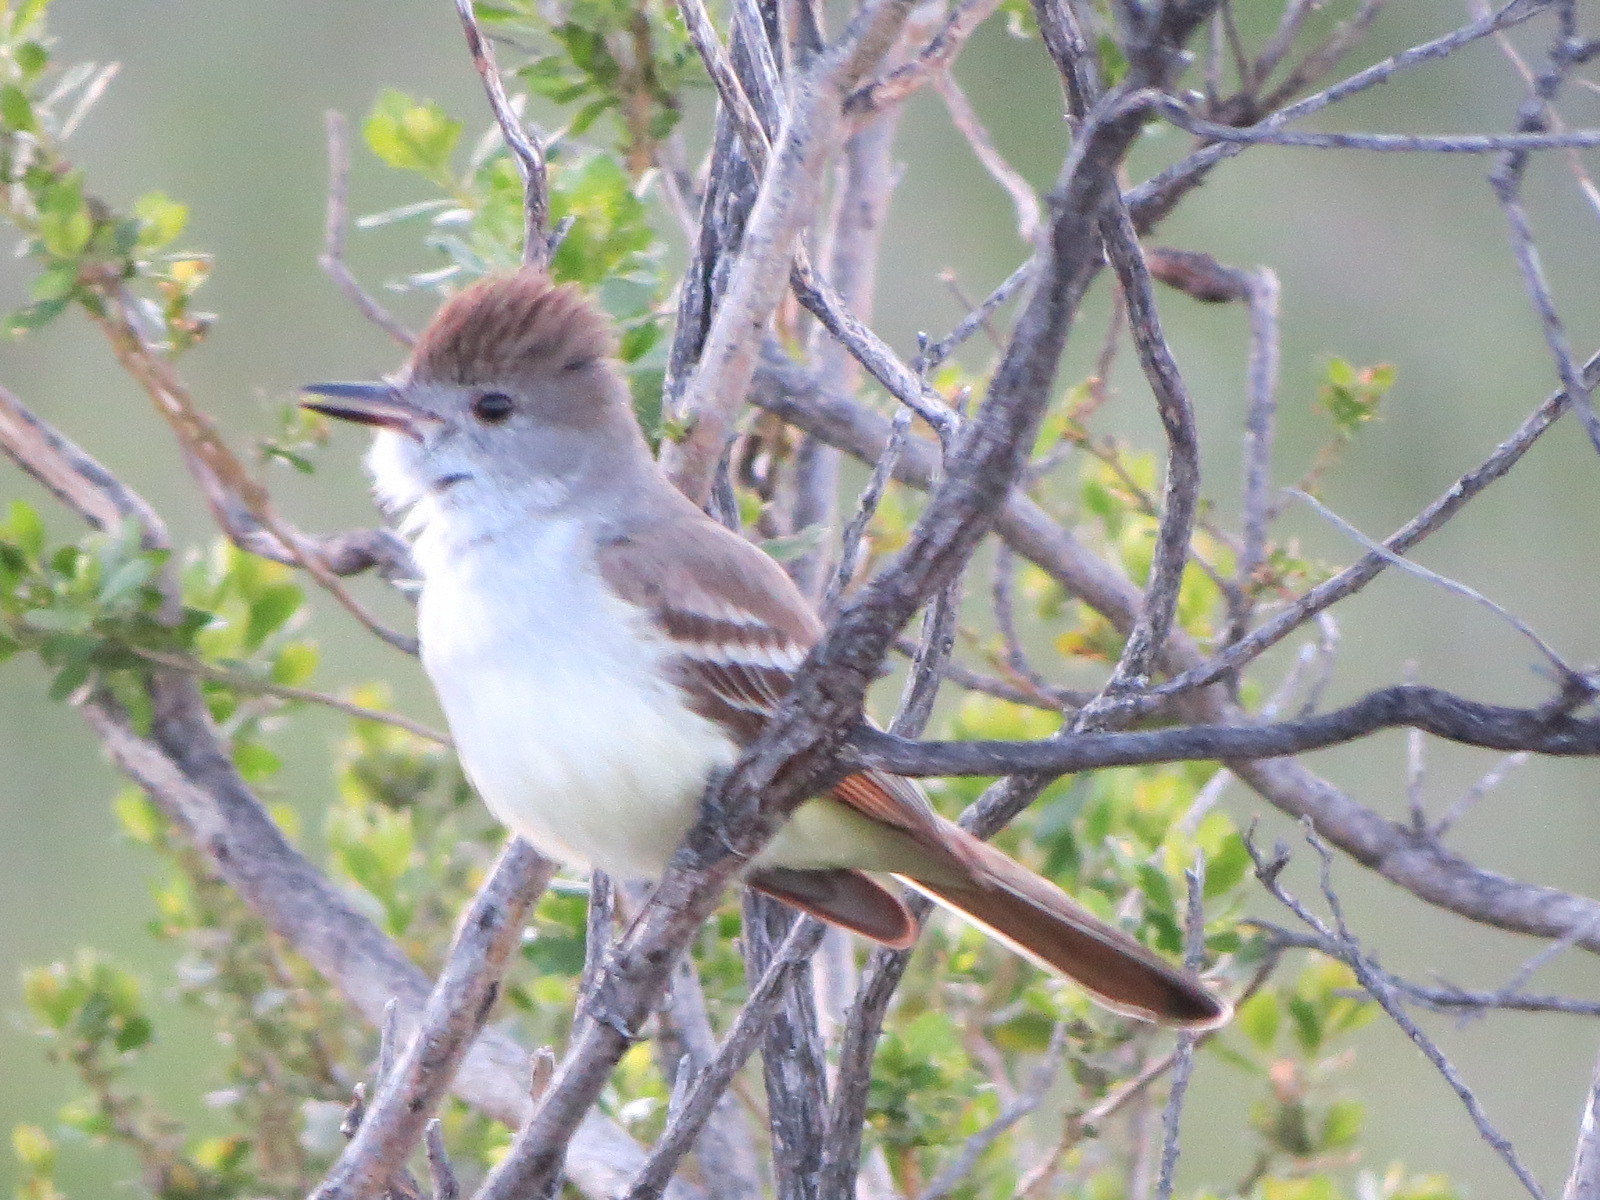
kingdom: Animalia
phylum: Chordata
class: Aves
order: Passeriformes
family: Tyrannidae
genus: Myiarchus
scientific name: Myiarchus cinerascens
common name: Ash-throated flycatcher
